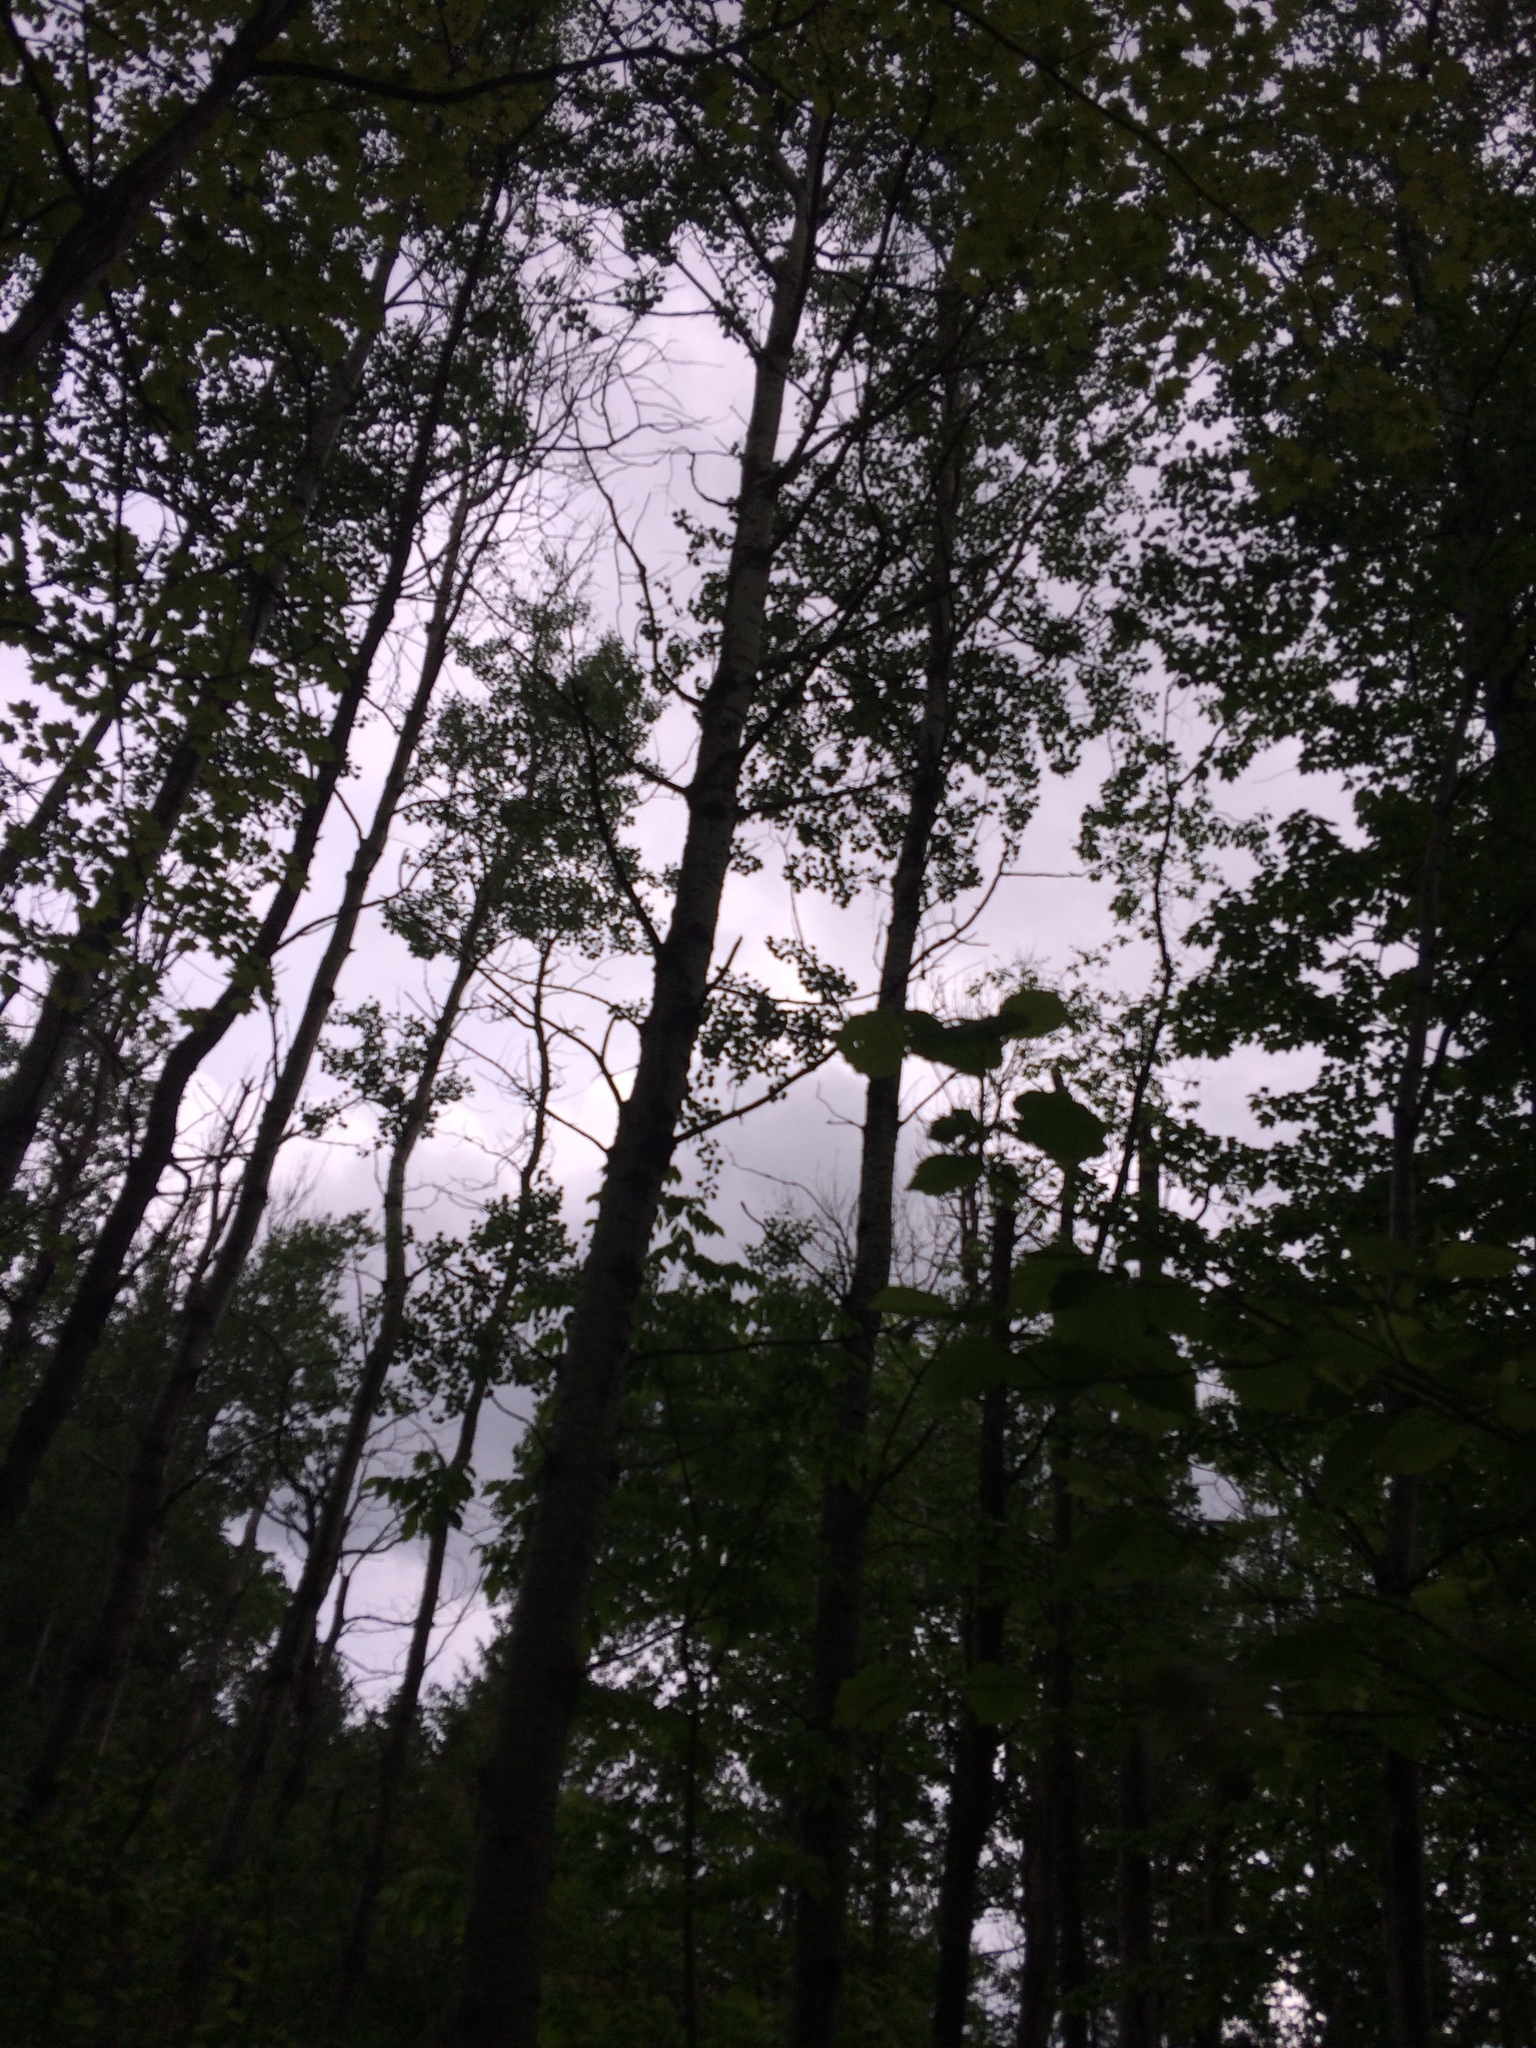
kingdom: Plantae
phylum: Tracheophyta
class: Magnoliopsida
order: Malpighiales
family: Salicaceae
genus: Populus
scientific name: Populus tremuloides
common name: Quaking aspen
